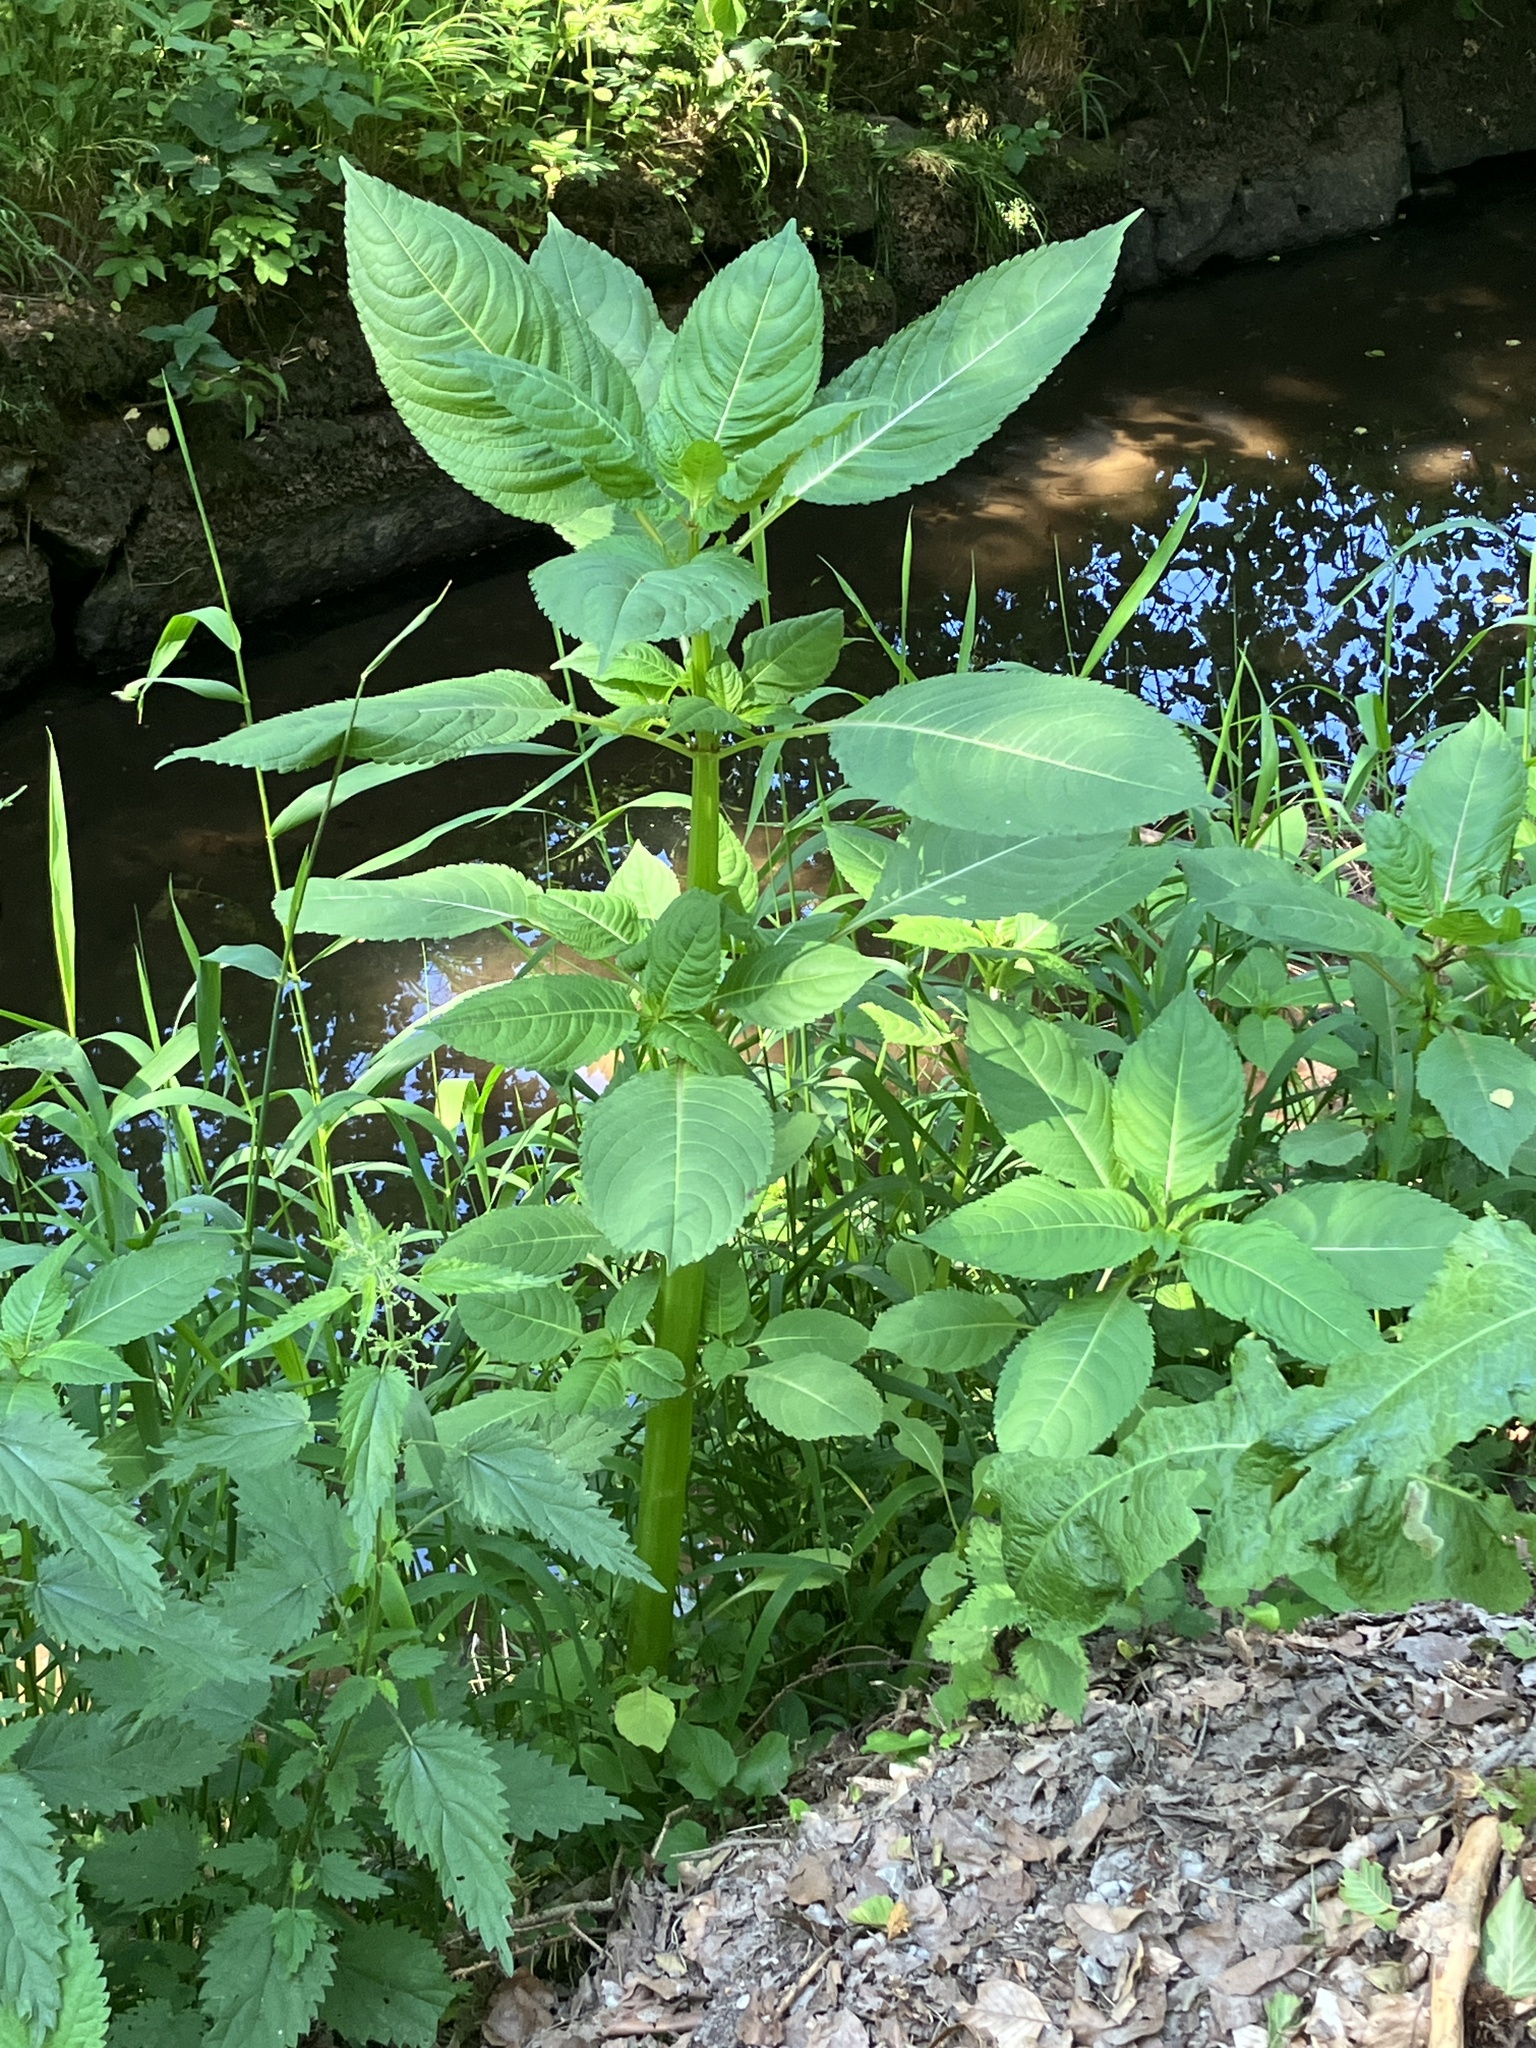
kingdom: Plantae
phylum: Tracheophyta
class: Magnoliopsida
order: Ericales
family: Balsaminaceae
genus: Impatiens
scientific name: Impatiens glandulifera
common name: Himalayan balsam
